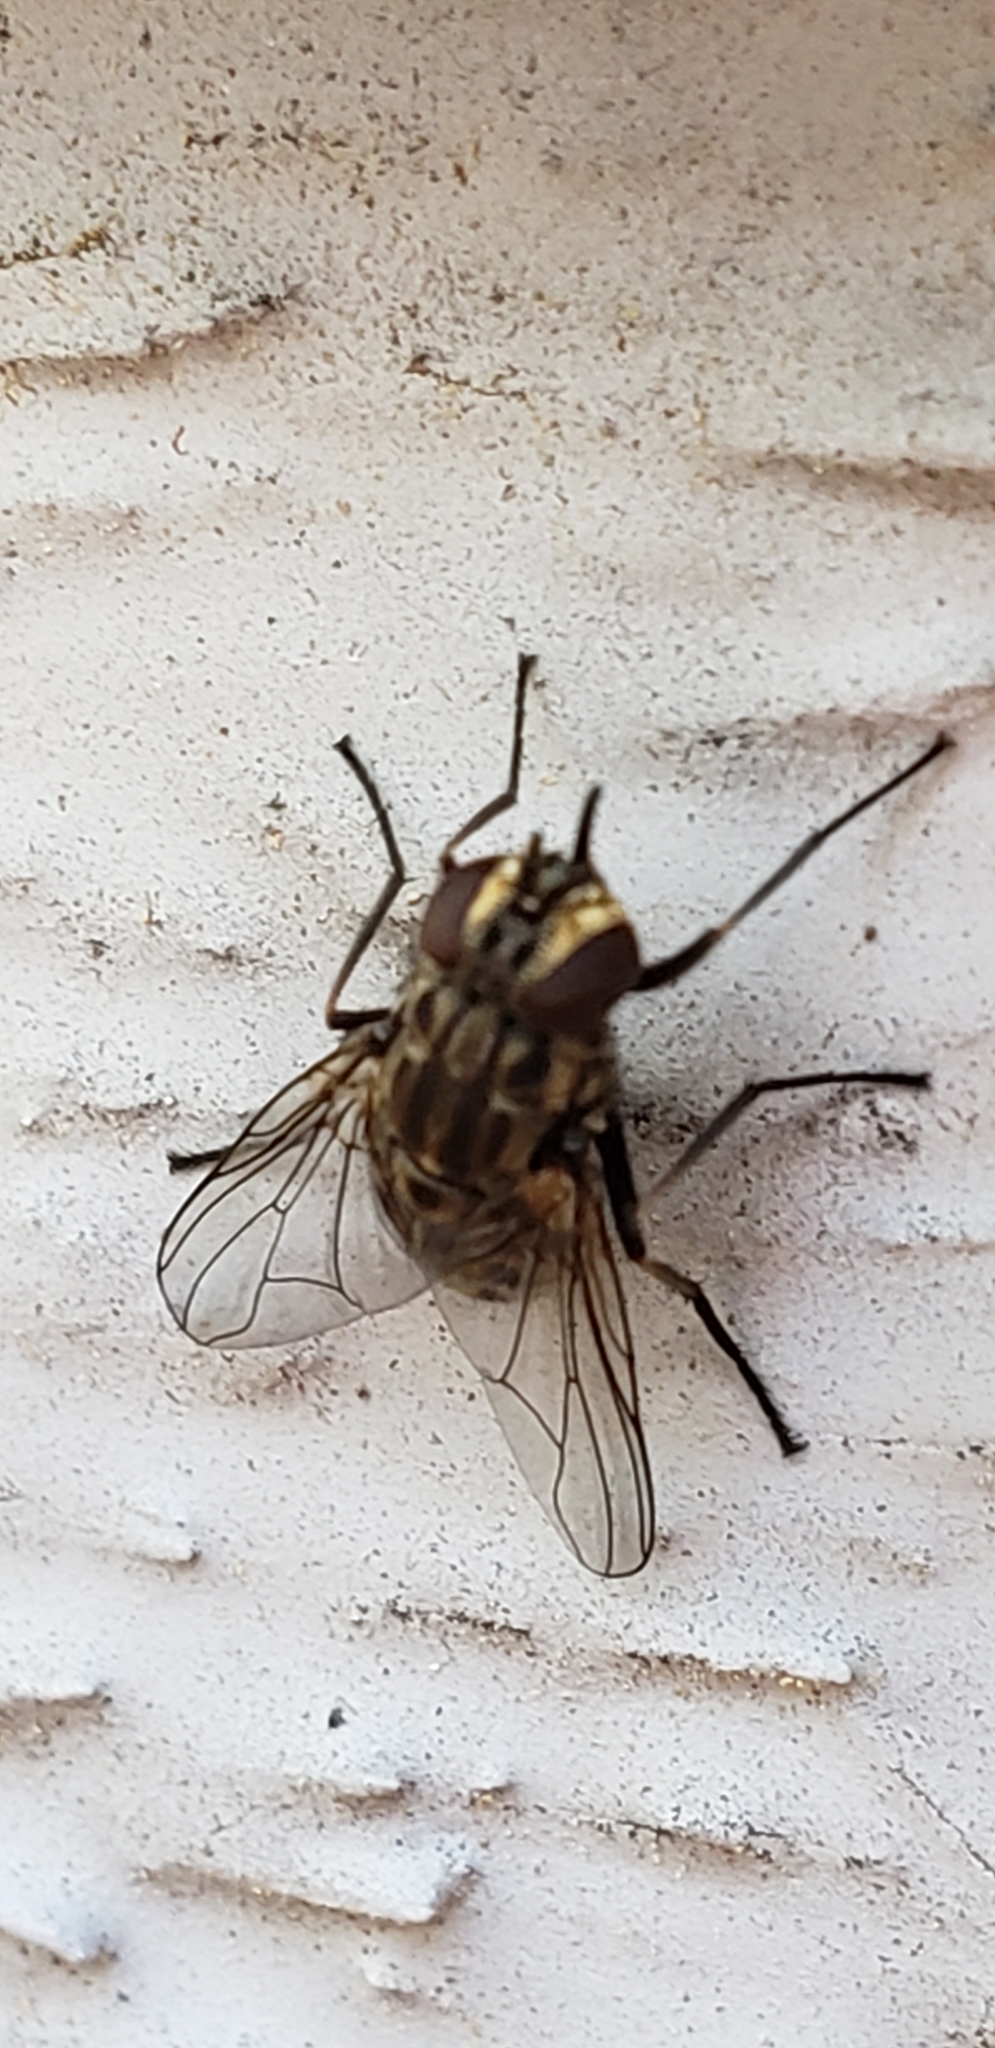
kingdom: Animalia
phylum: Arthropoda
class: Insecta
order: Diptera
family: Muscidae
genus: Stomoxys
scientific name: Stomoxys calcitrans
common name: Stable fly
